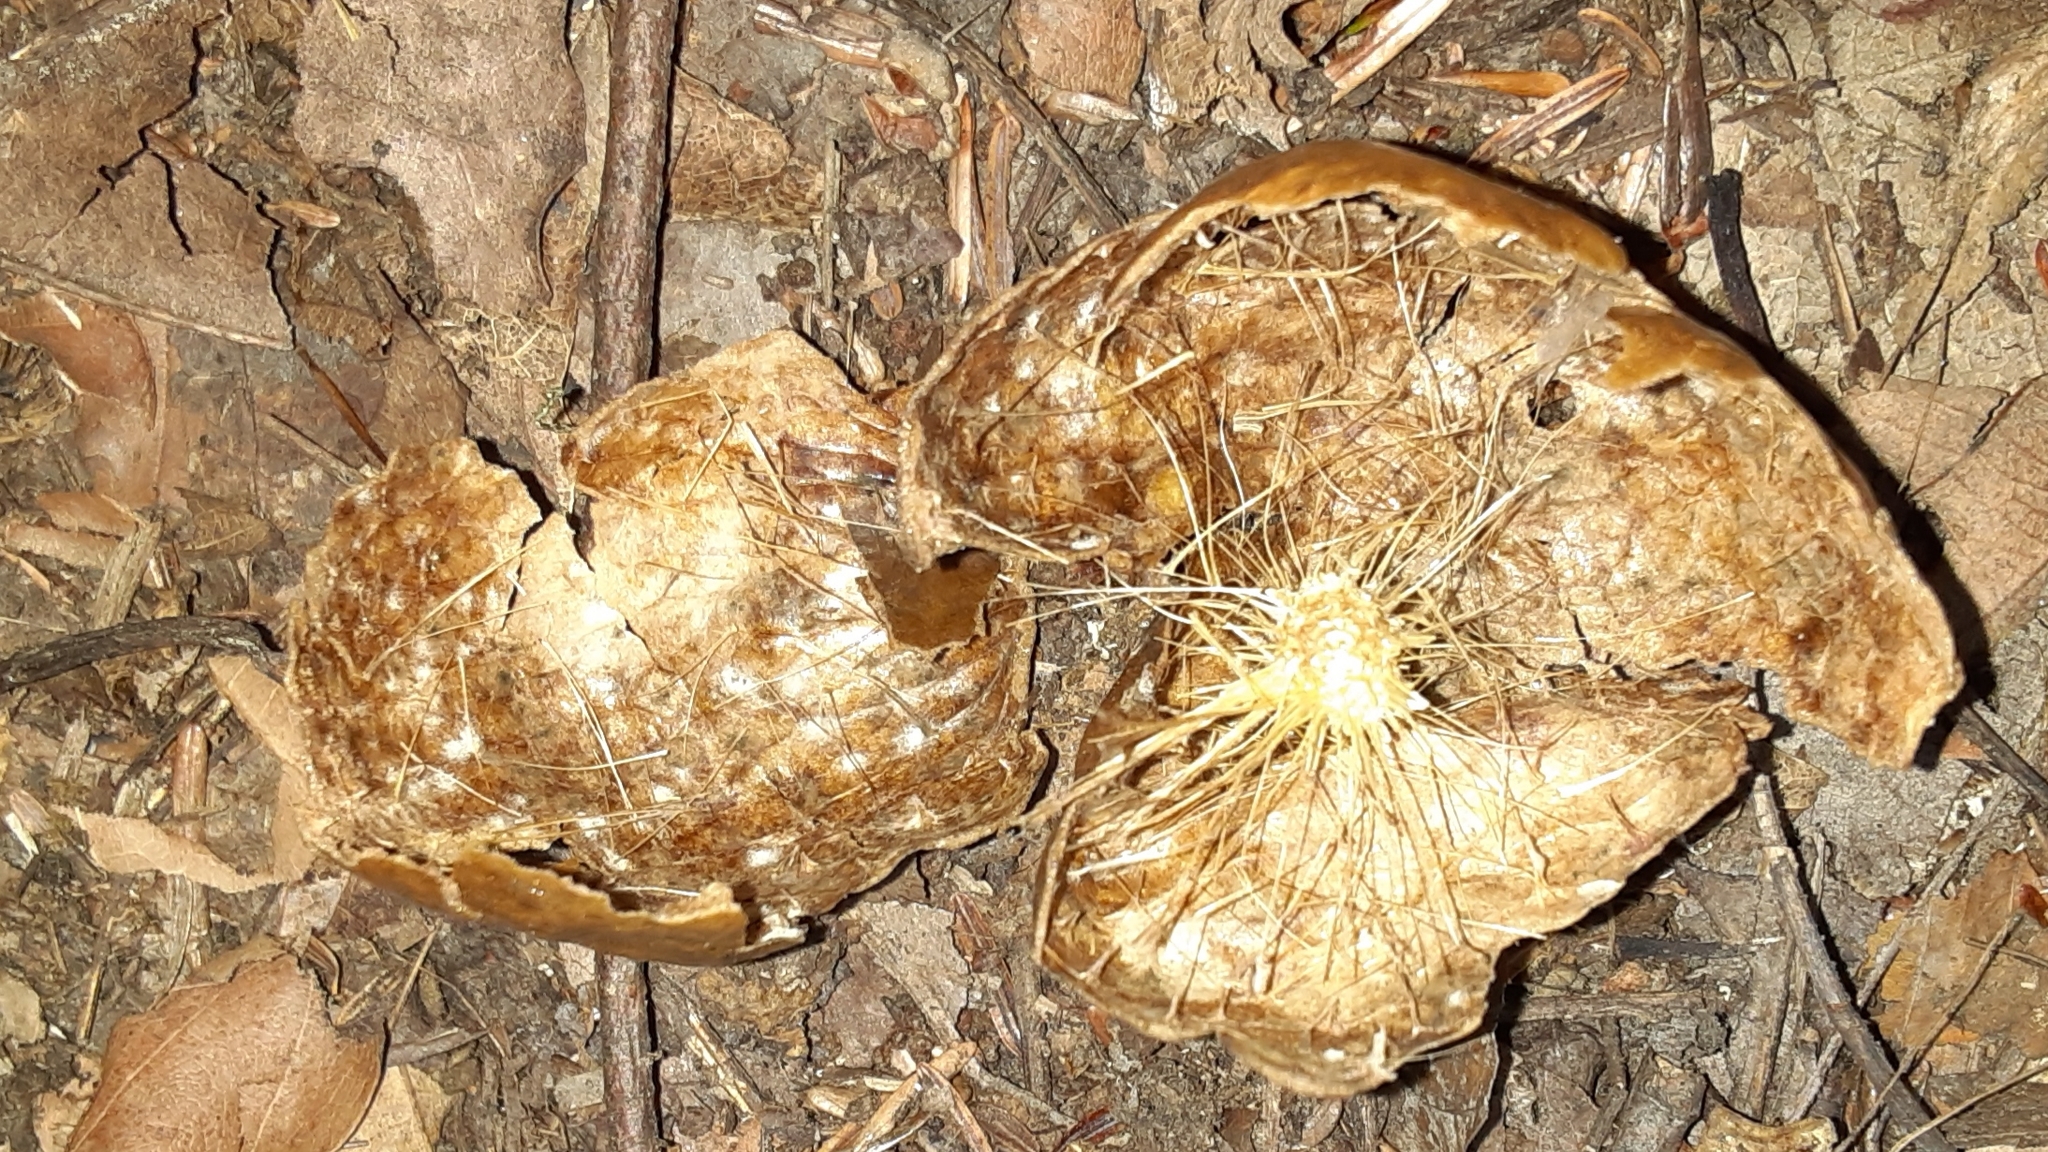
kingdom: Animalia
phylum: Arthropoda
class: Insecta
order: Hymenoptera
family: Cynipidae
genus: Amphibolips
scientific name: Amphibolips
